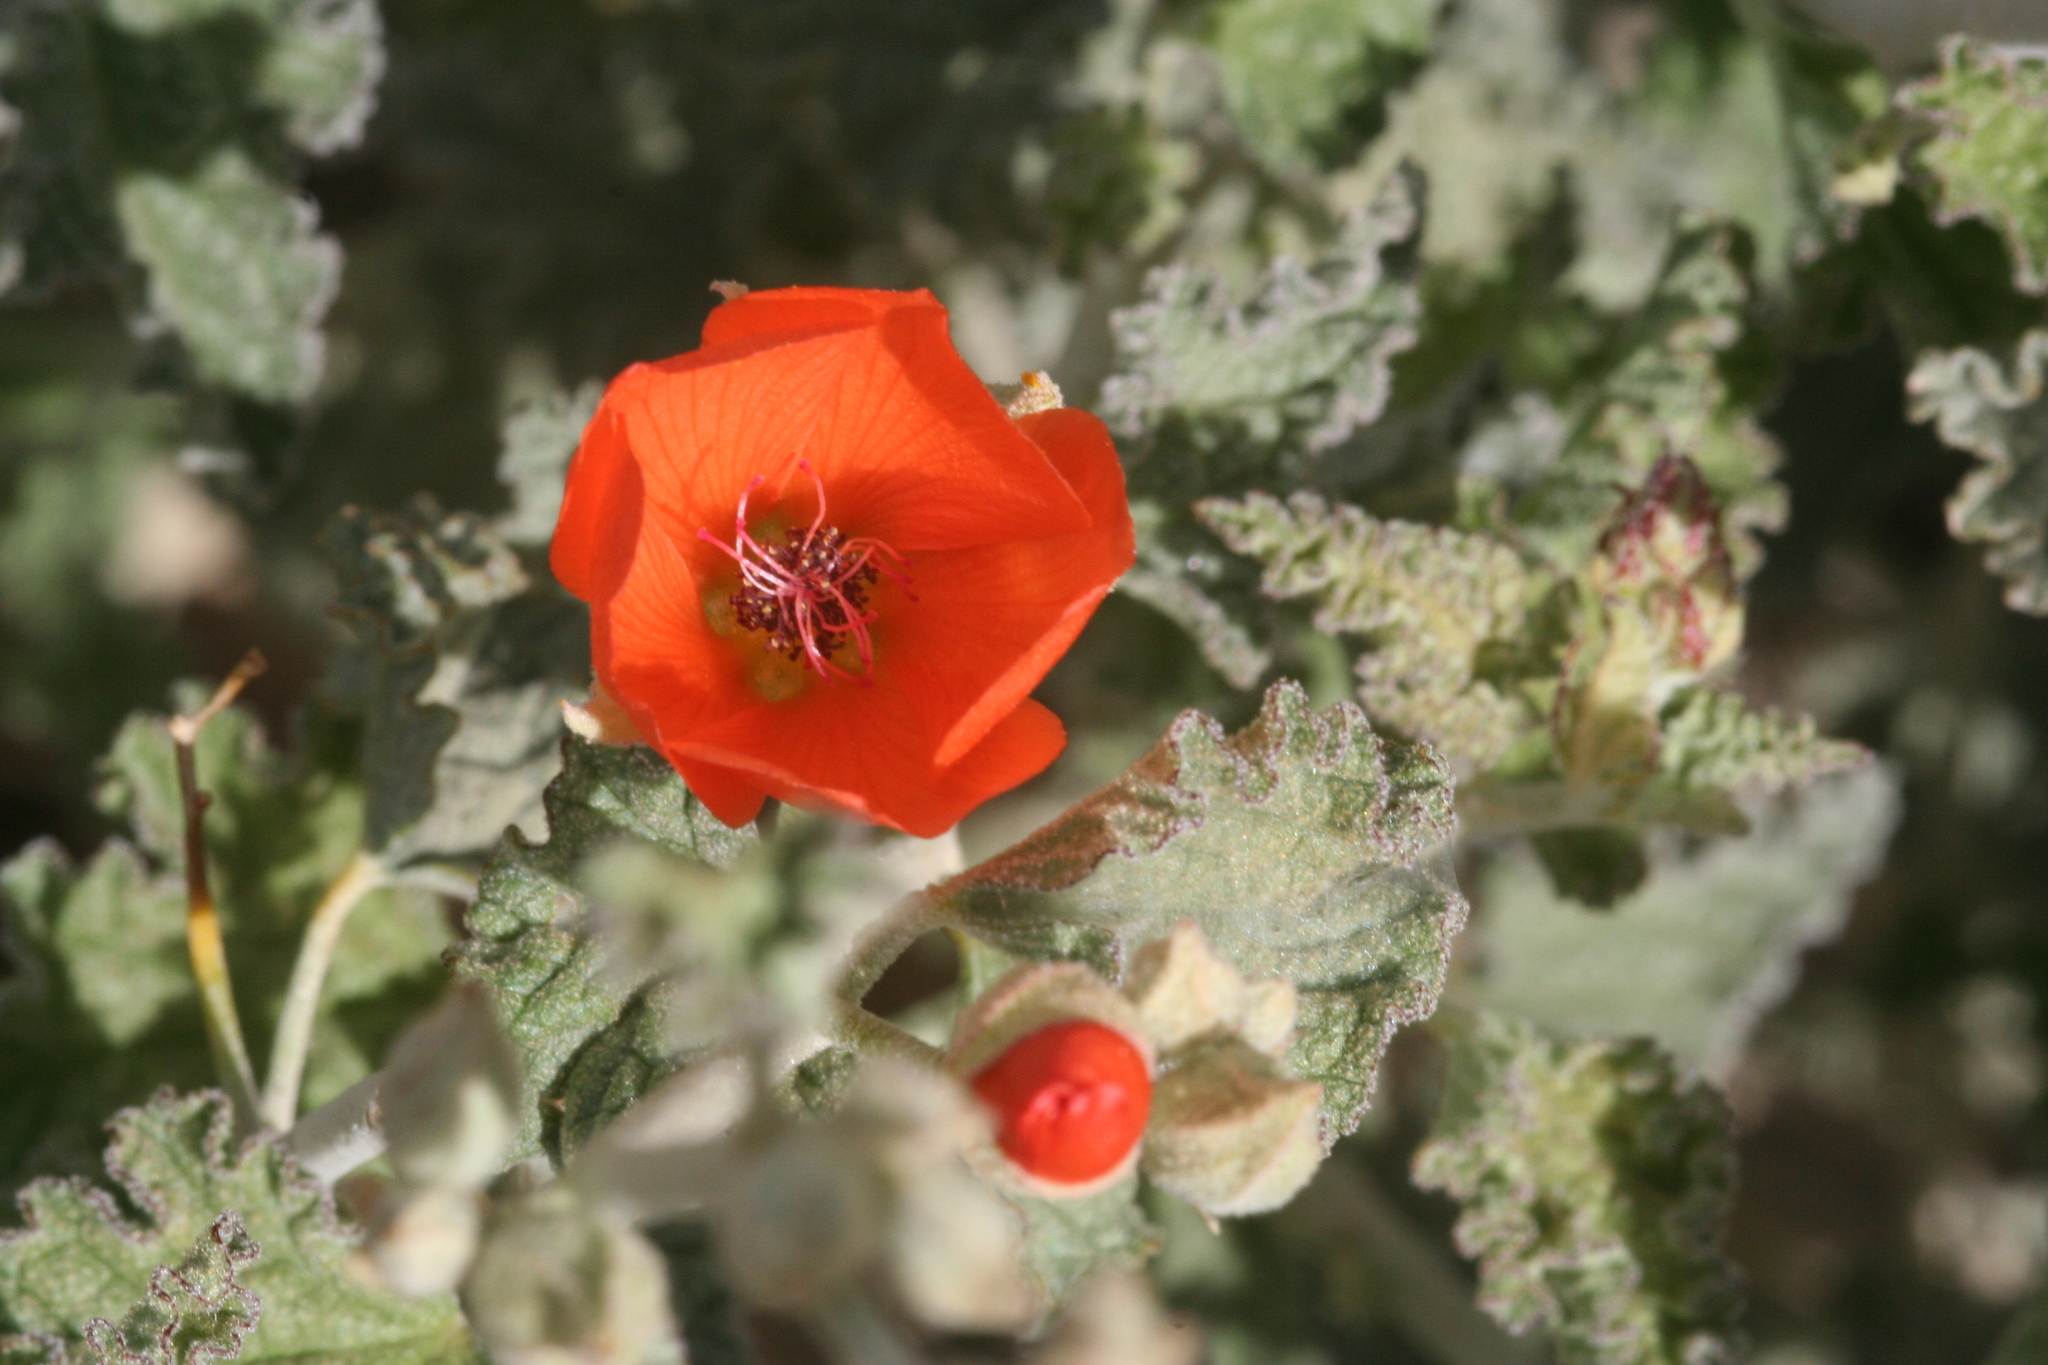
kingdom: Plantae
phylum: Tracheophyta
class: Magnoliopsida
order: Malvales
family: Malvaceae
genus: Sphaeralcea
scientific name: Sphaeralcea ambigua
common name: Apricot globe-mallow
